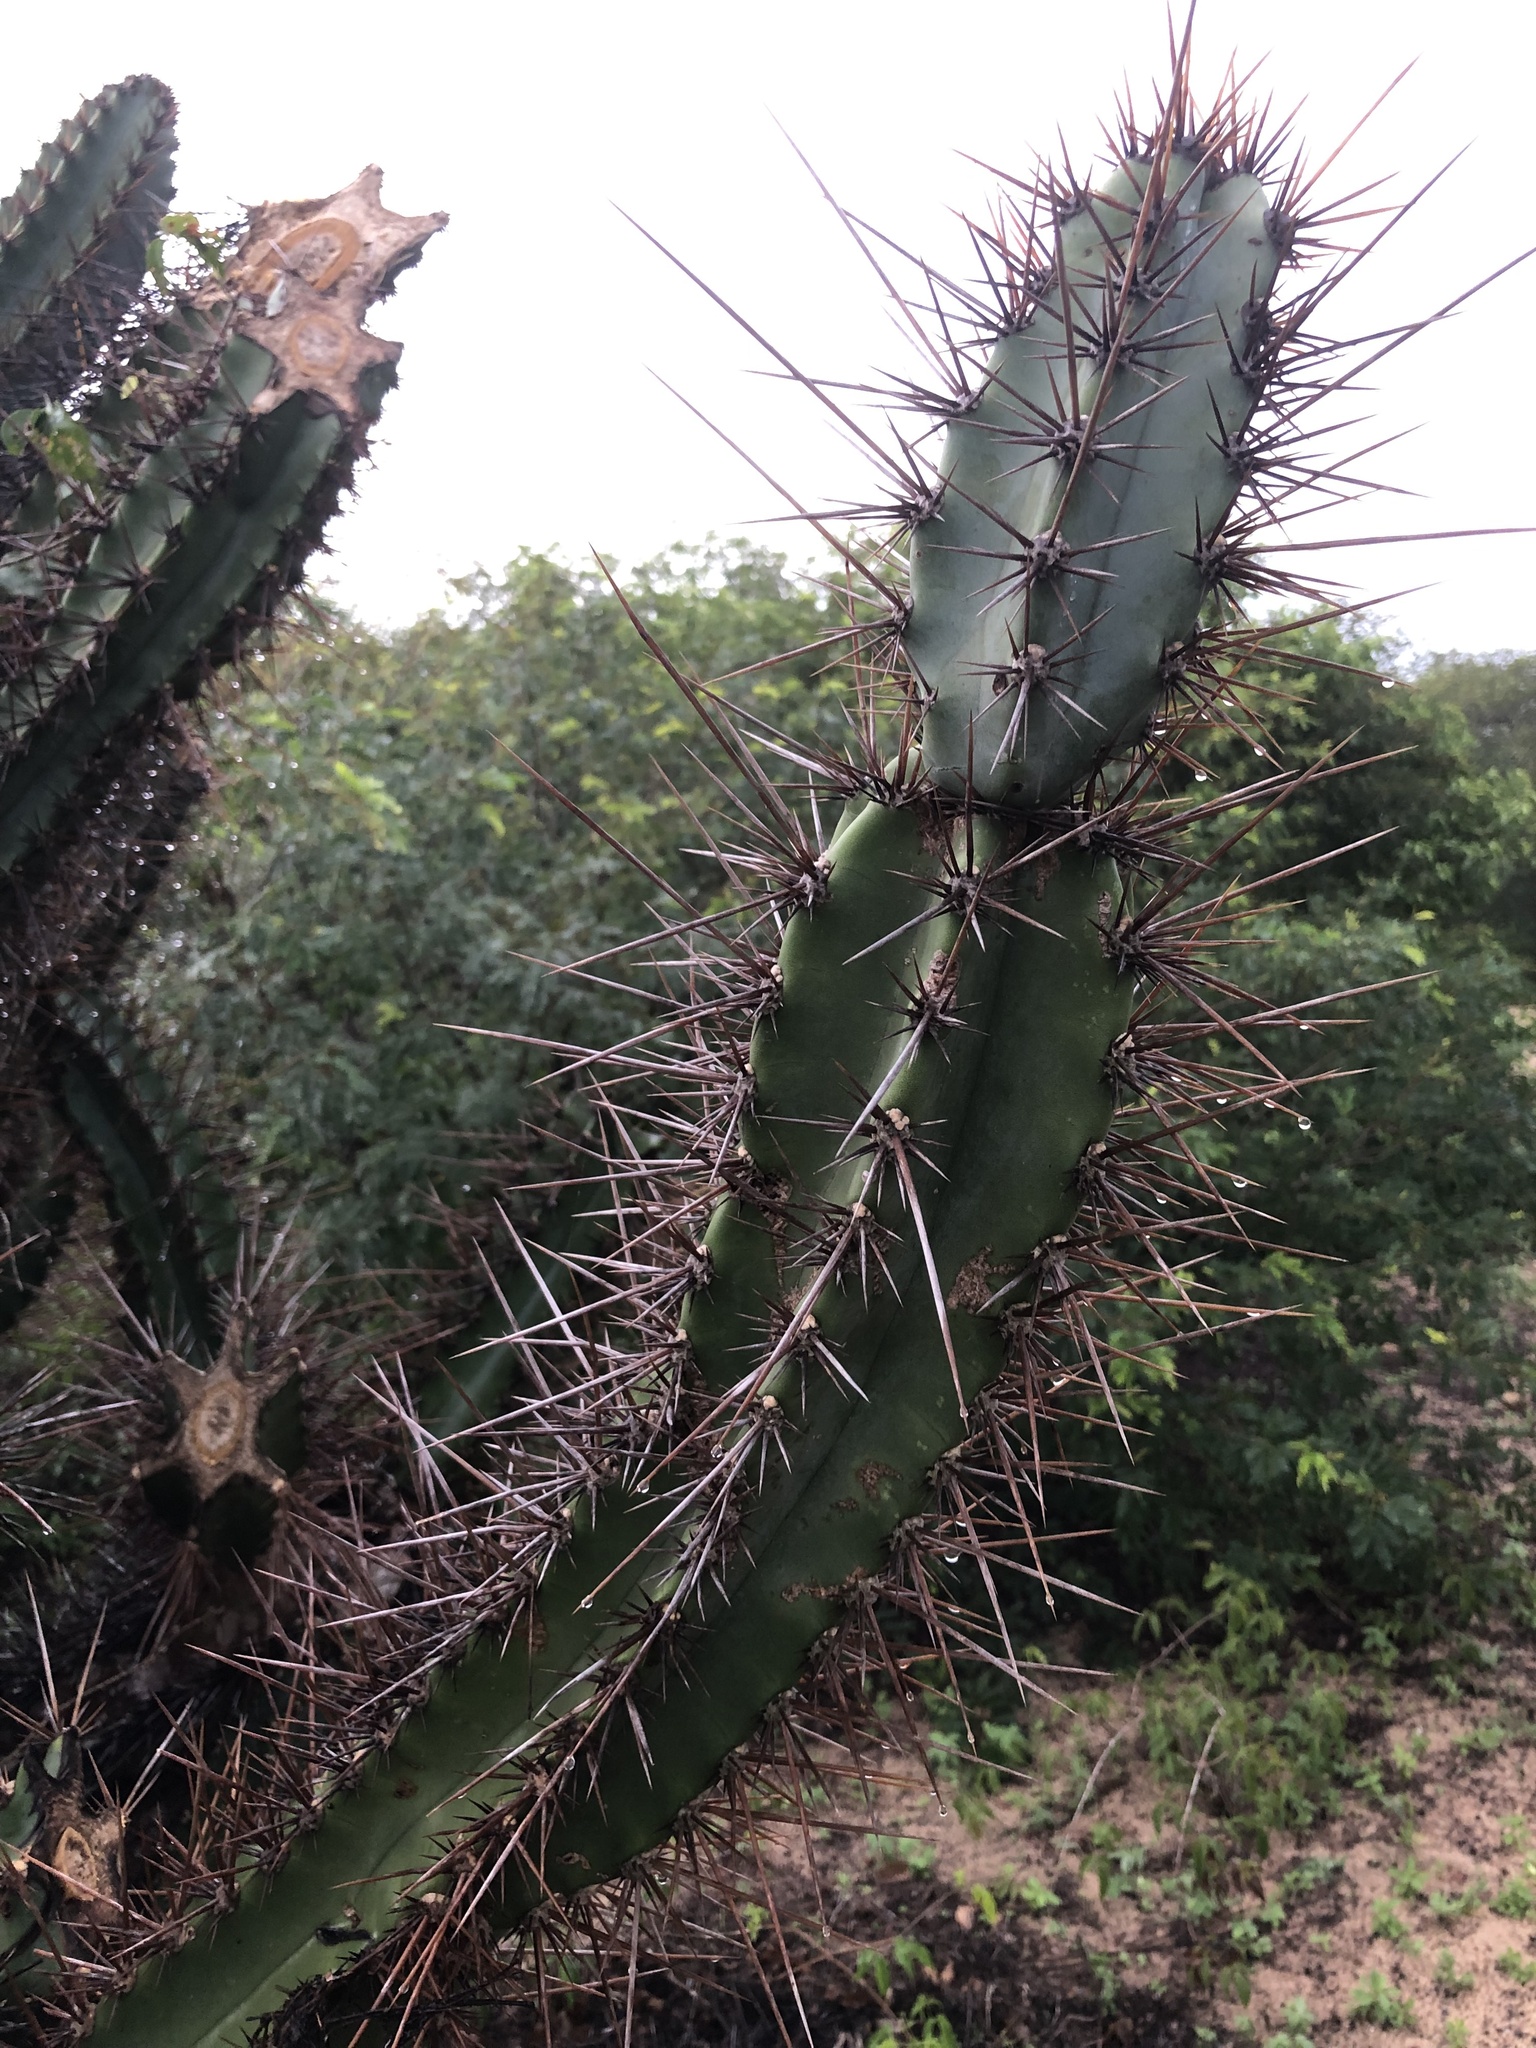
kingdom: Plantae
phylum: Tracheophyta
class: Magnoliopsida
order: Caryophyllales
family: Cactaceae
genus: Cereus
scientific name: Cereus jamacaru
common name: Queen-of-the-night
